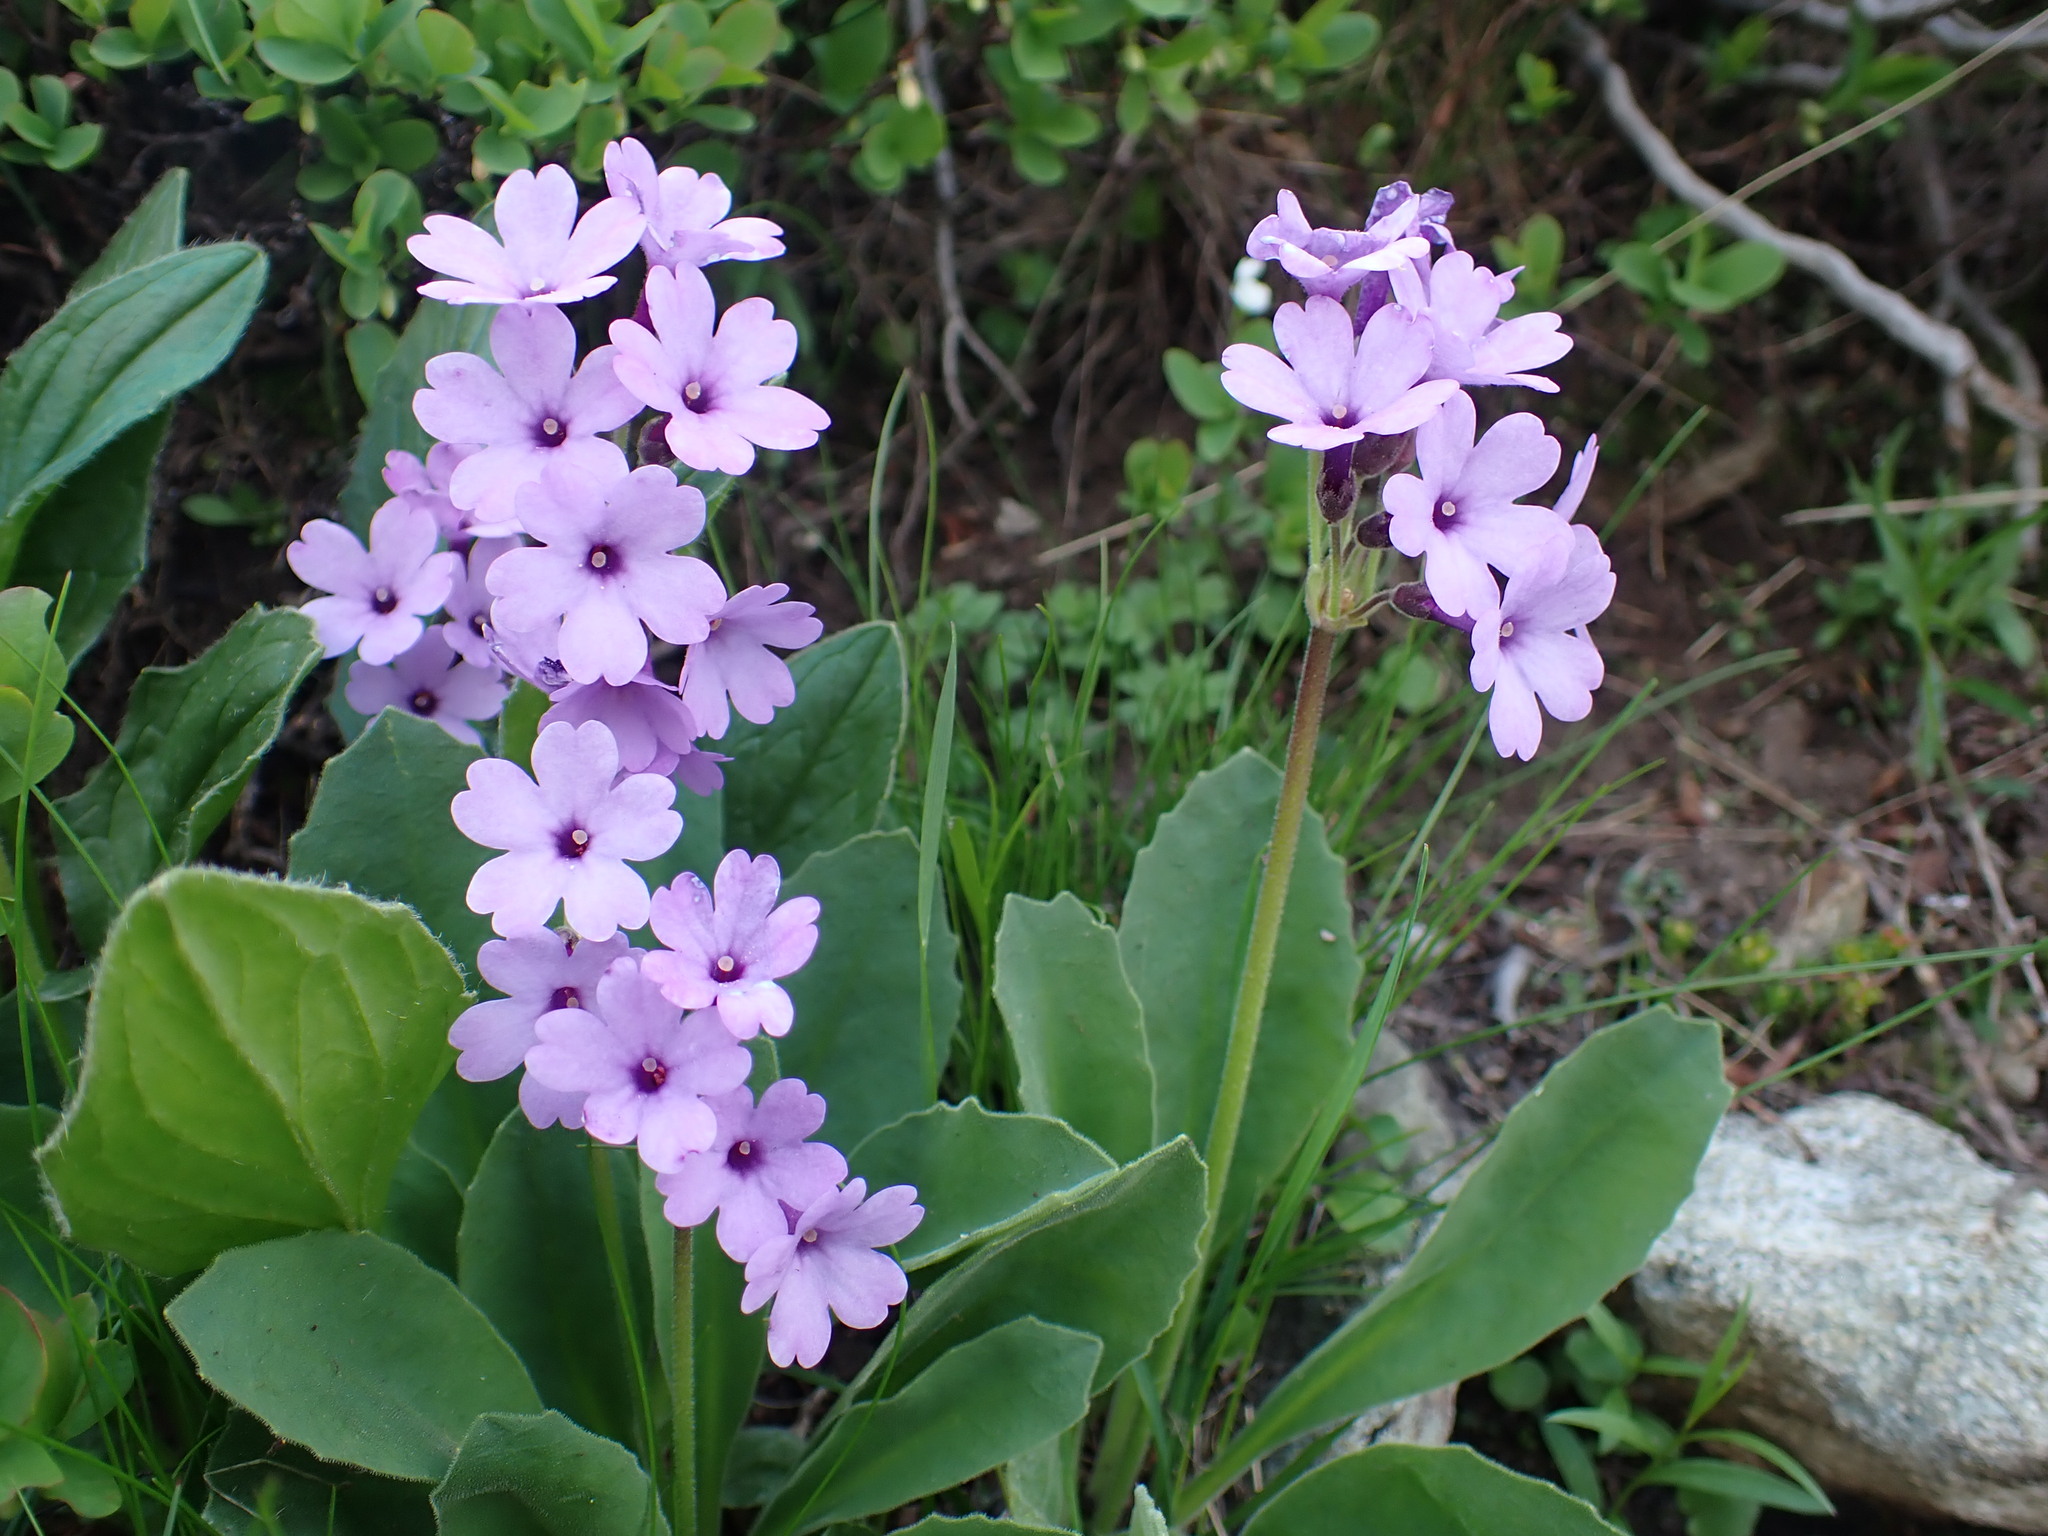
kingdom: Plantae
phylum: Tracheophyta
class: Magnoliopsida
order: Ericales
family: Primulaceae
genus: Primula
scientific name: Primula latifolia
